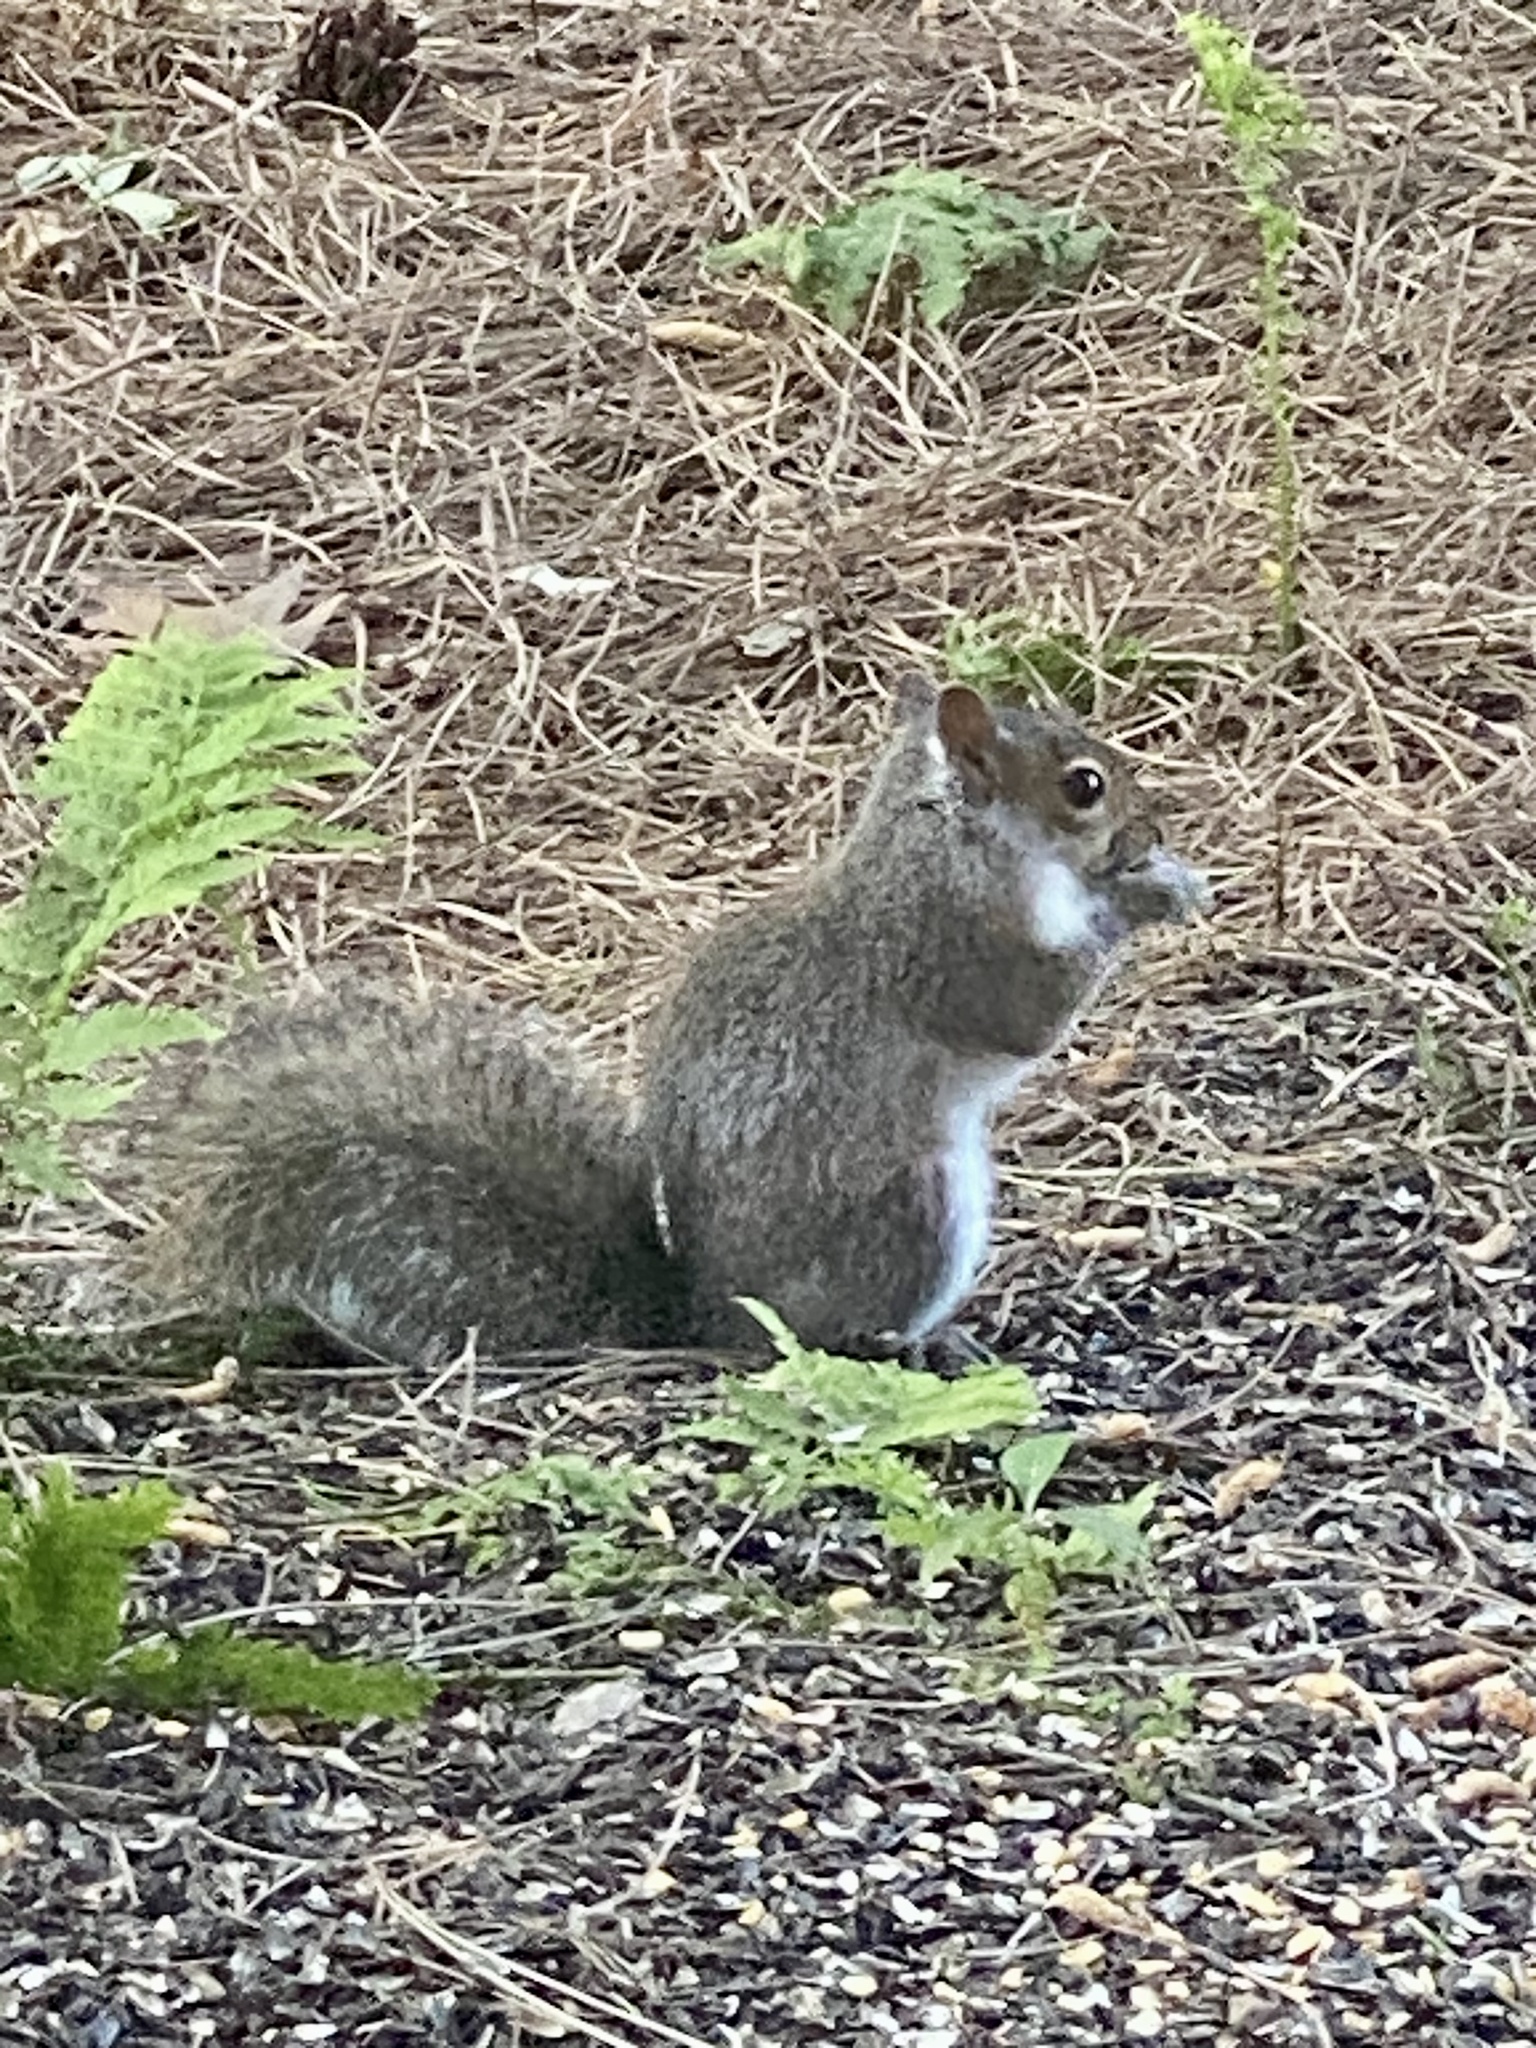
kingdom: Animalia
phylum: Chordata
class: Mammalia
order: Rodentia
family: Sciuridae
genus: Sciurus
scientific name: Sciurus carolinensis
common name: Eastern gray squirrel
